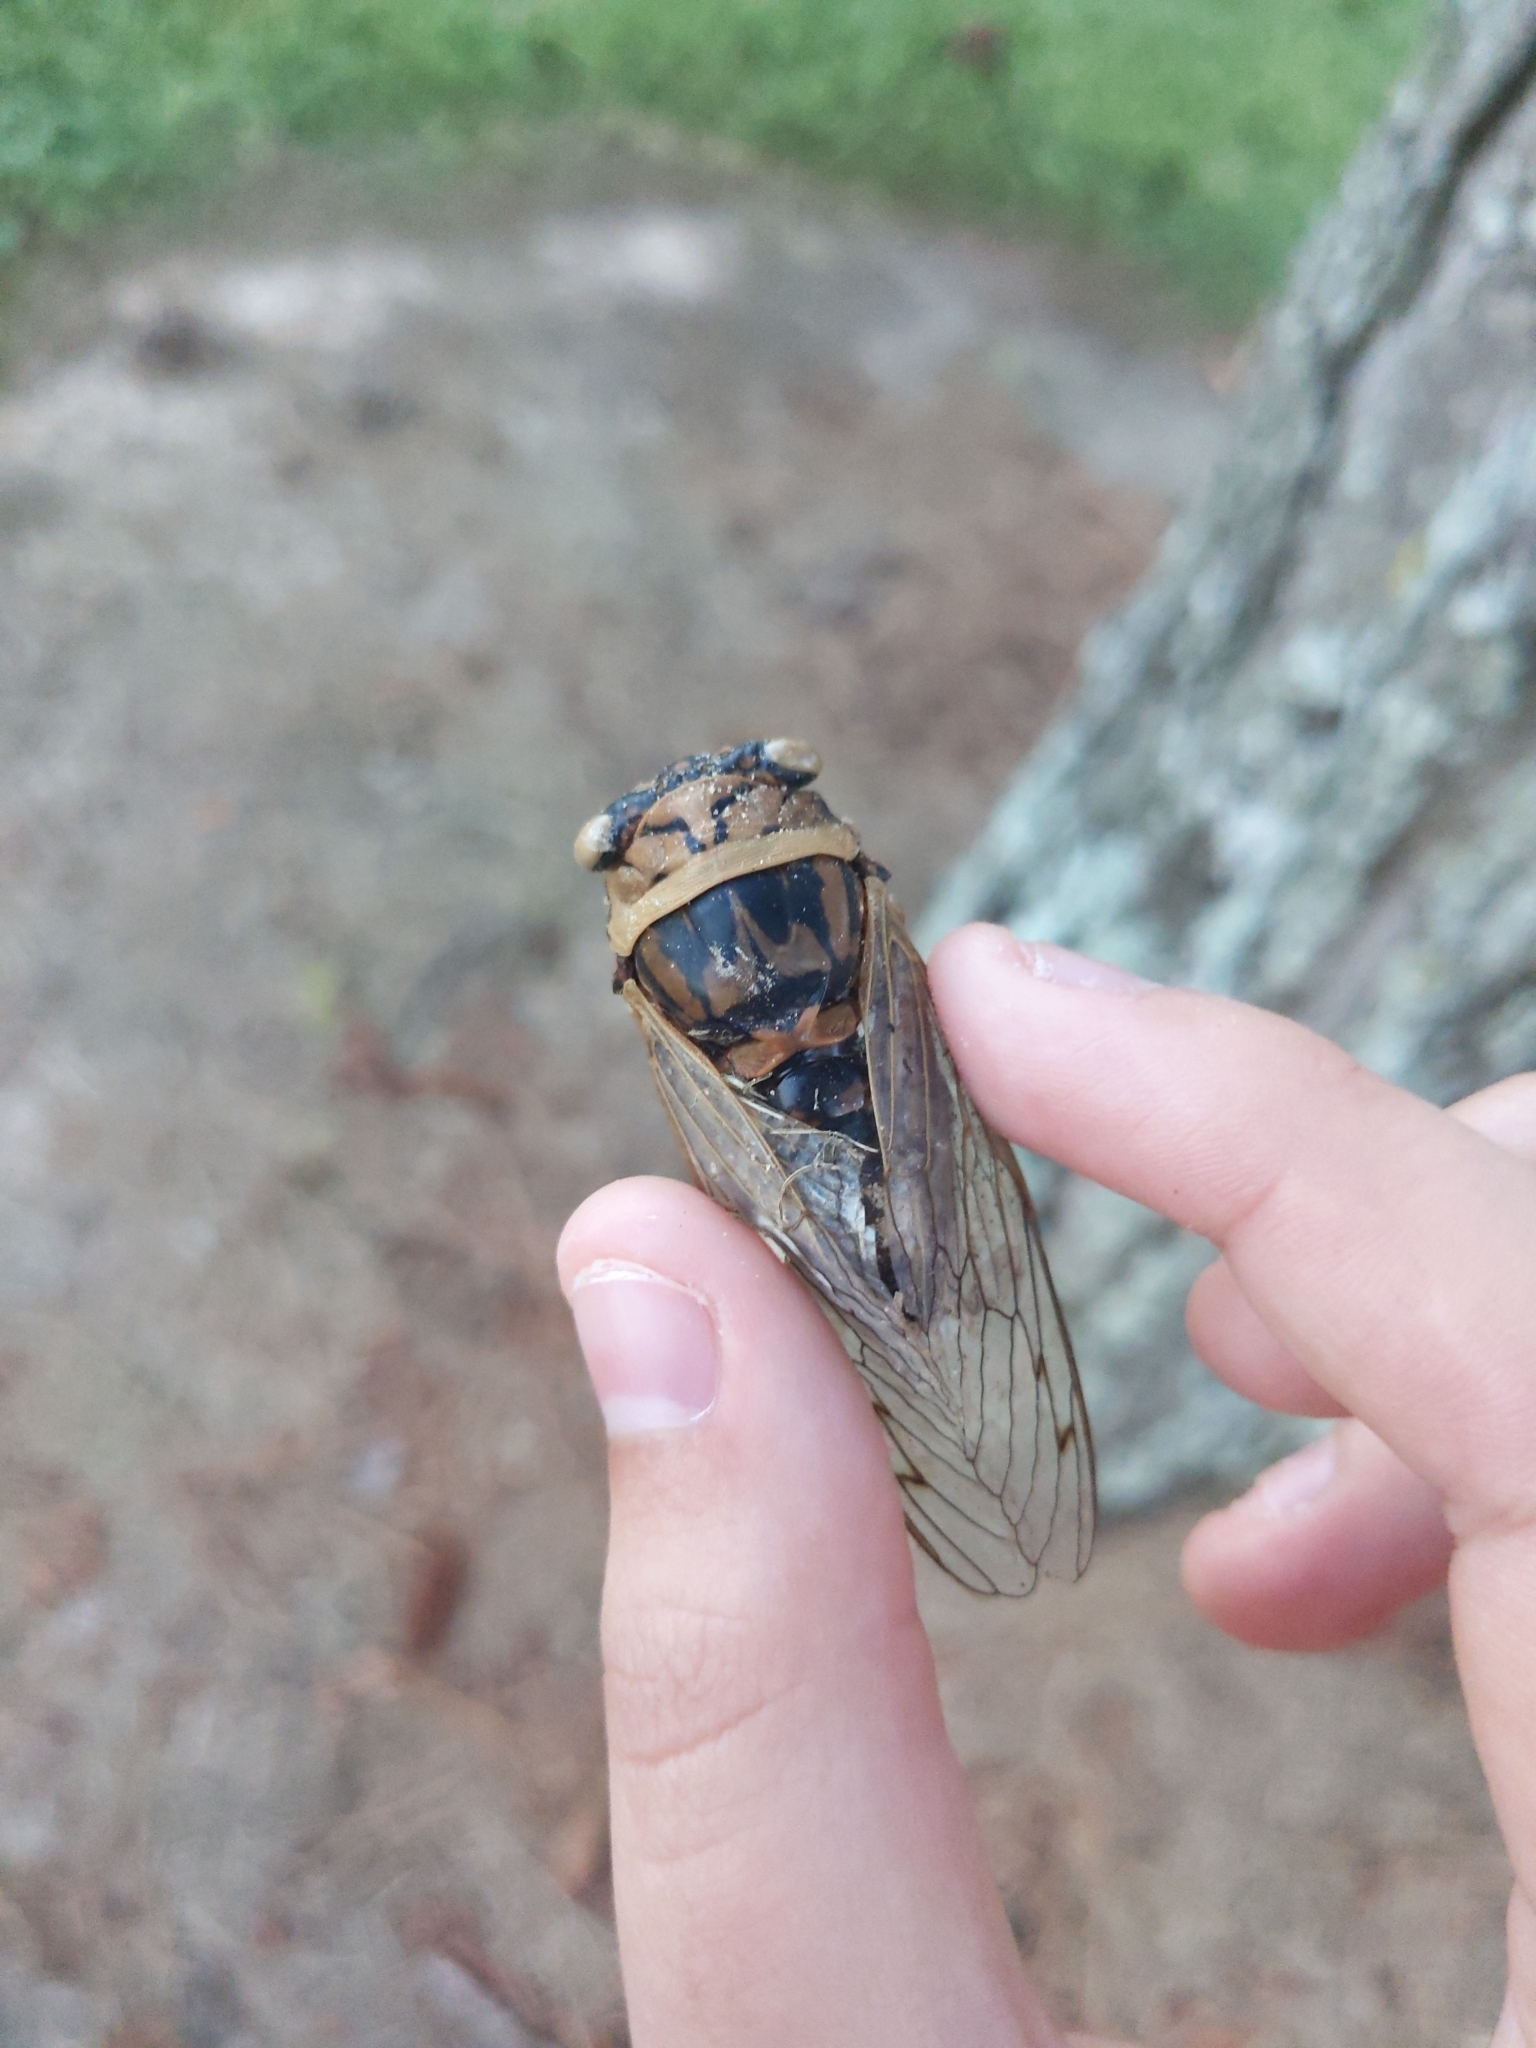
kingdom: Animalia
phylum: Arthropoda
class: Insecta
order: Hemiptera
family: Cicadidae
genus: Megatibicen
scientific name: Megatibicen resh
